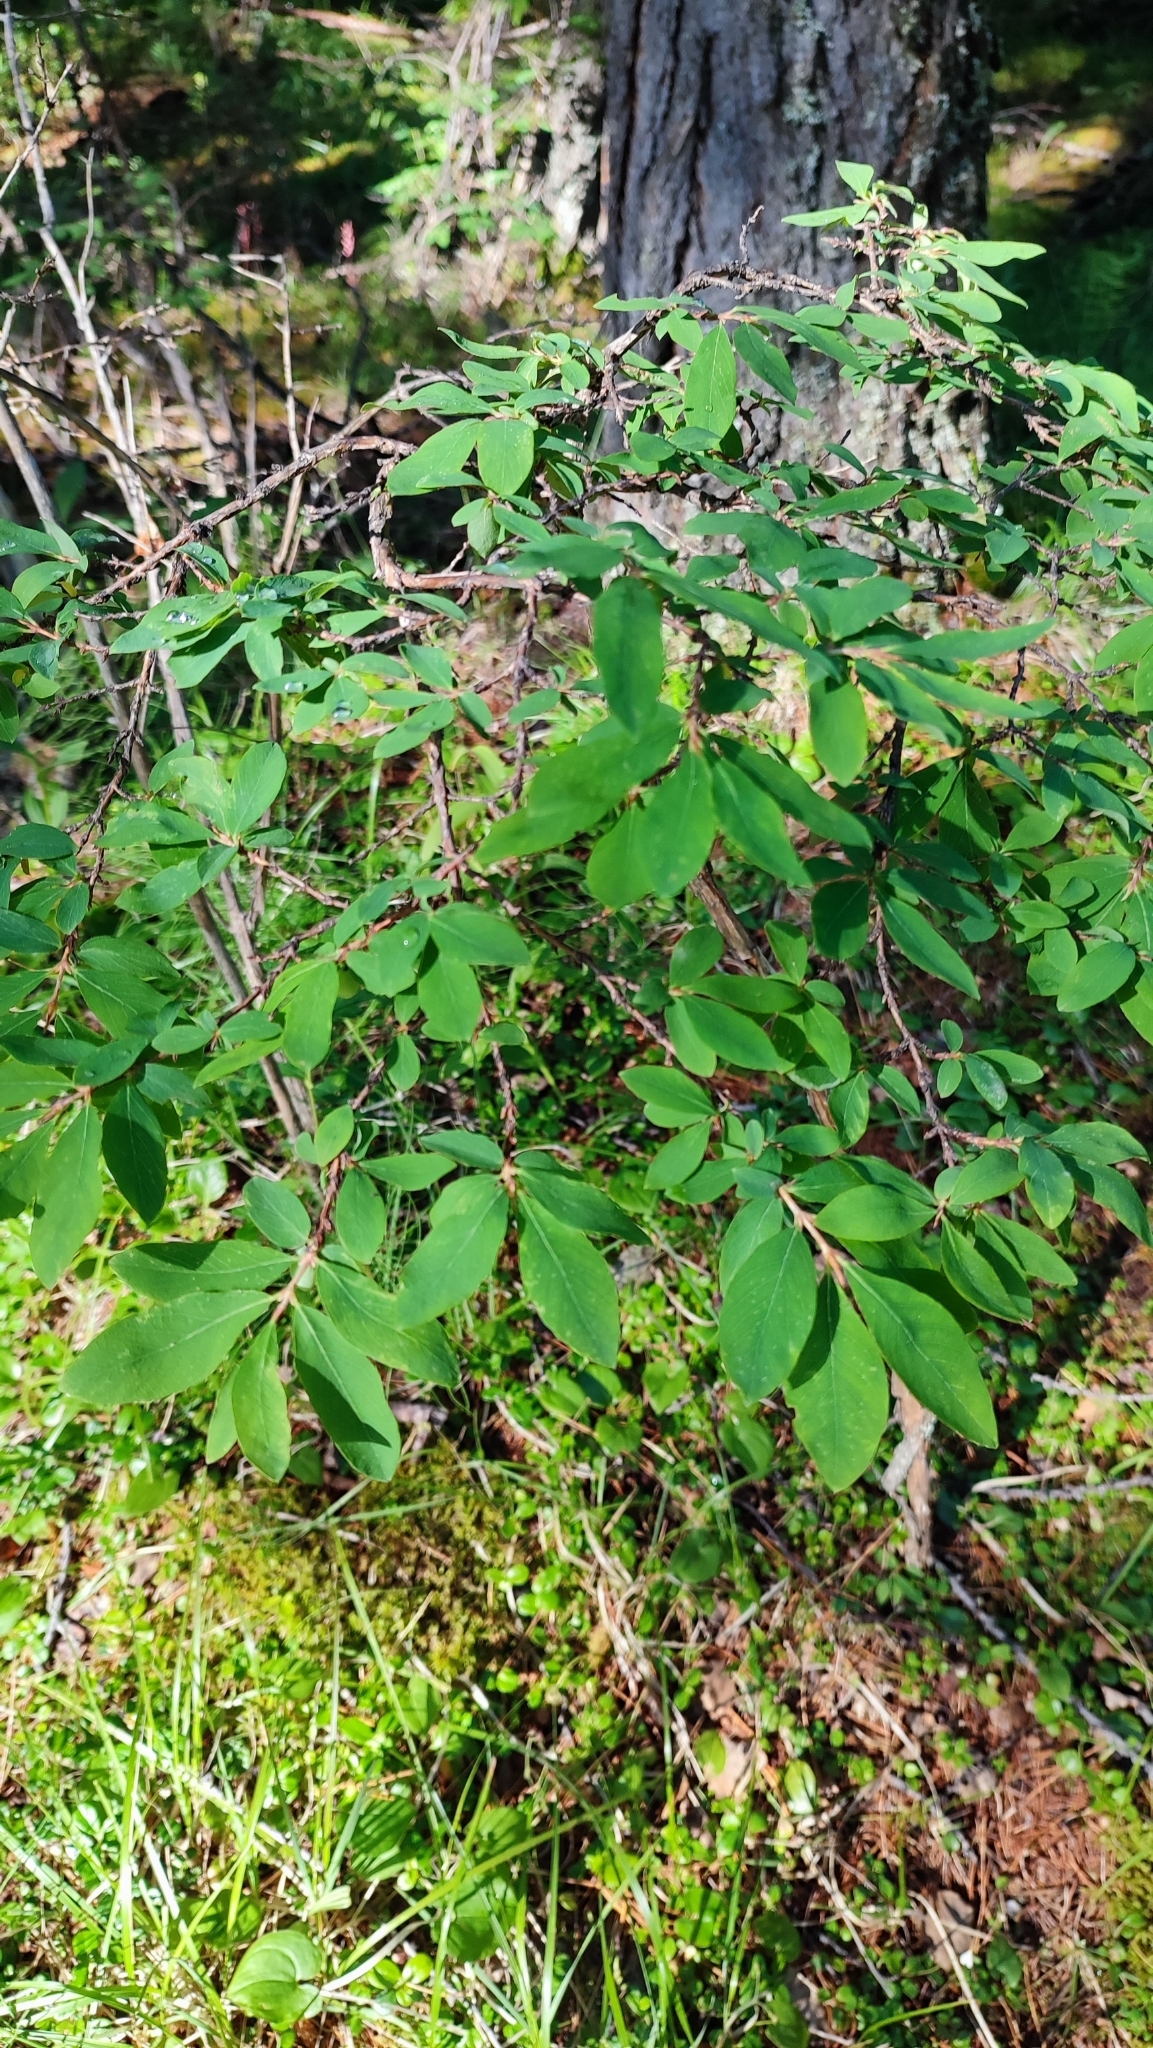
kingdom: Plantae
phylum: Tracheophyta
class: Magnoliopsida
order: Dipsacales
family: Caprifoliaceae
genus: Lonicera
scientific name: Lonicera caerulea
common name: Blue honeysuckle
